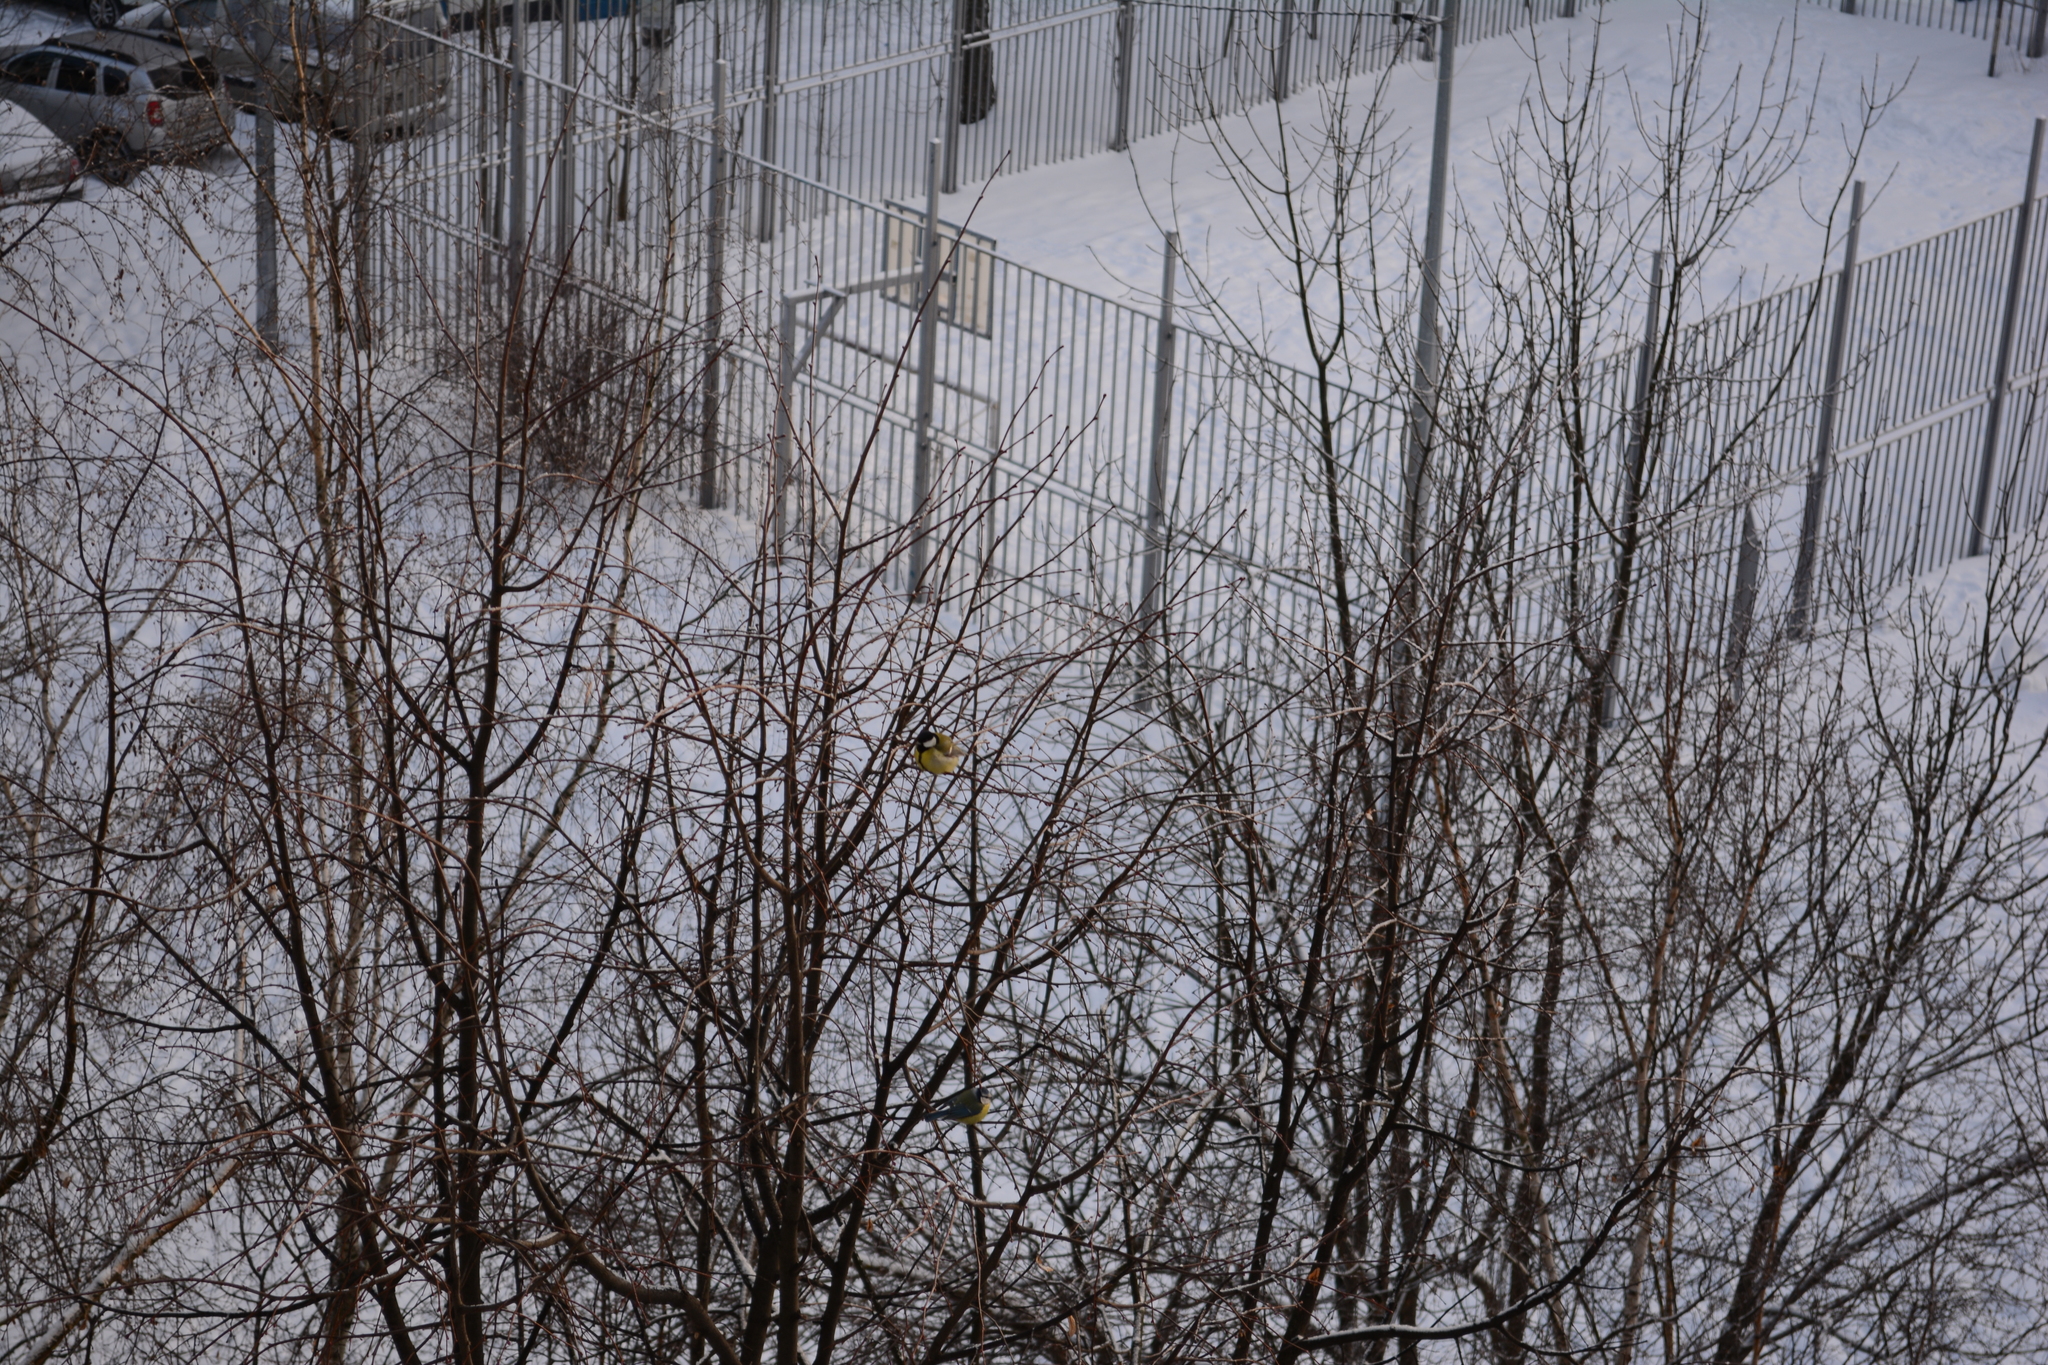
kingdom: Animalia
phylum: Chordata
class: Aves
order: Passeriformes
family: Paridae
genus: Parus
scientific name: Parus major
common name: Great tit
